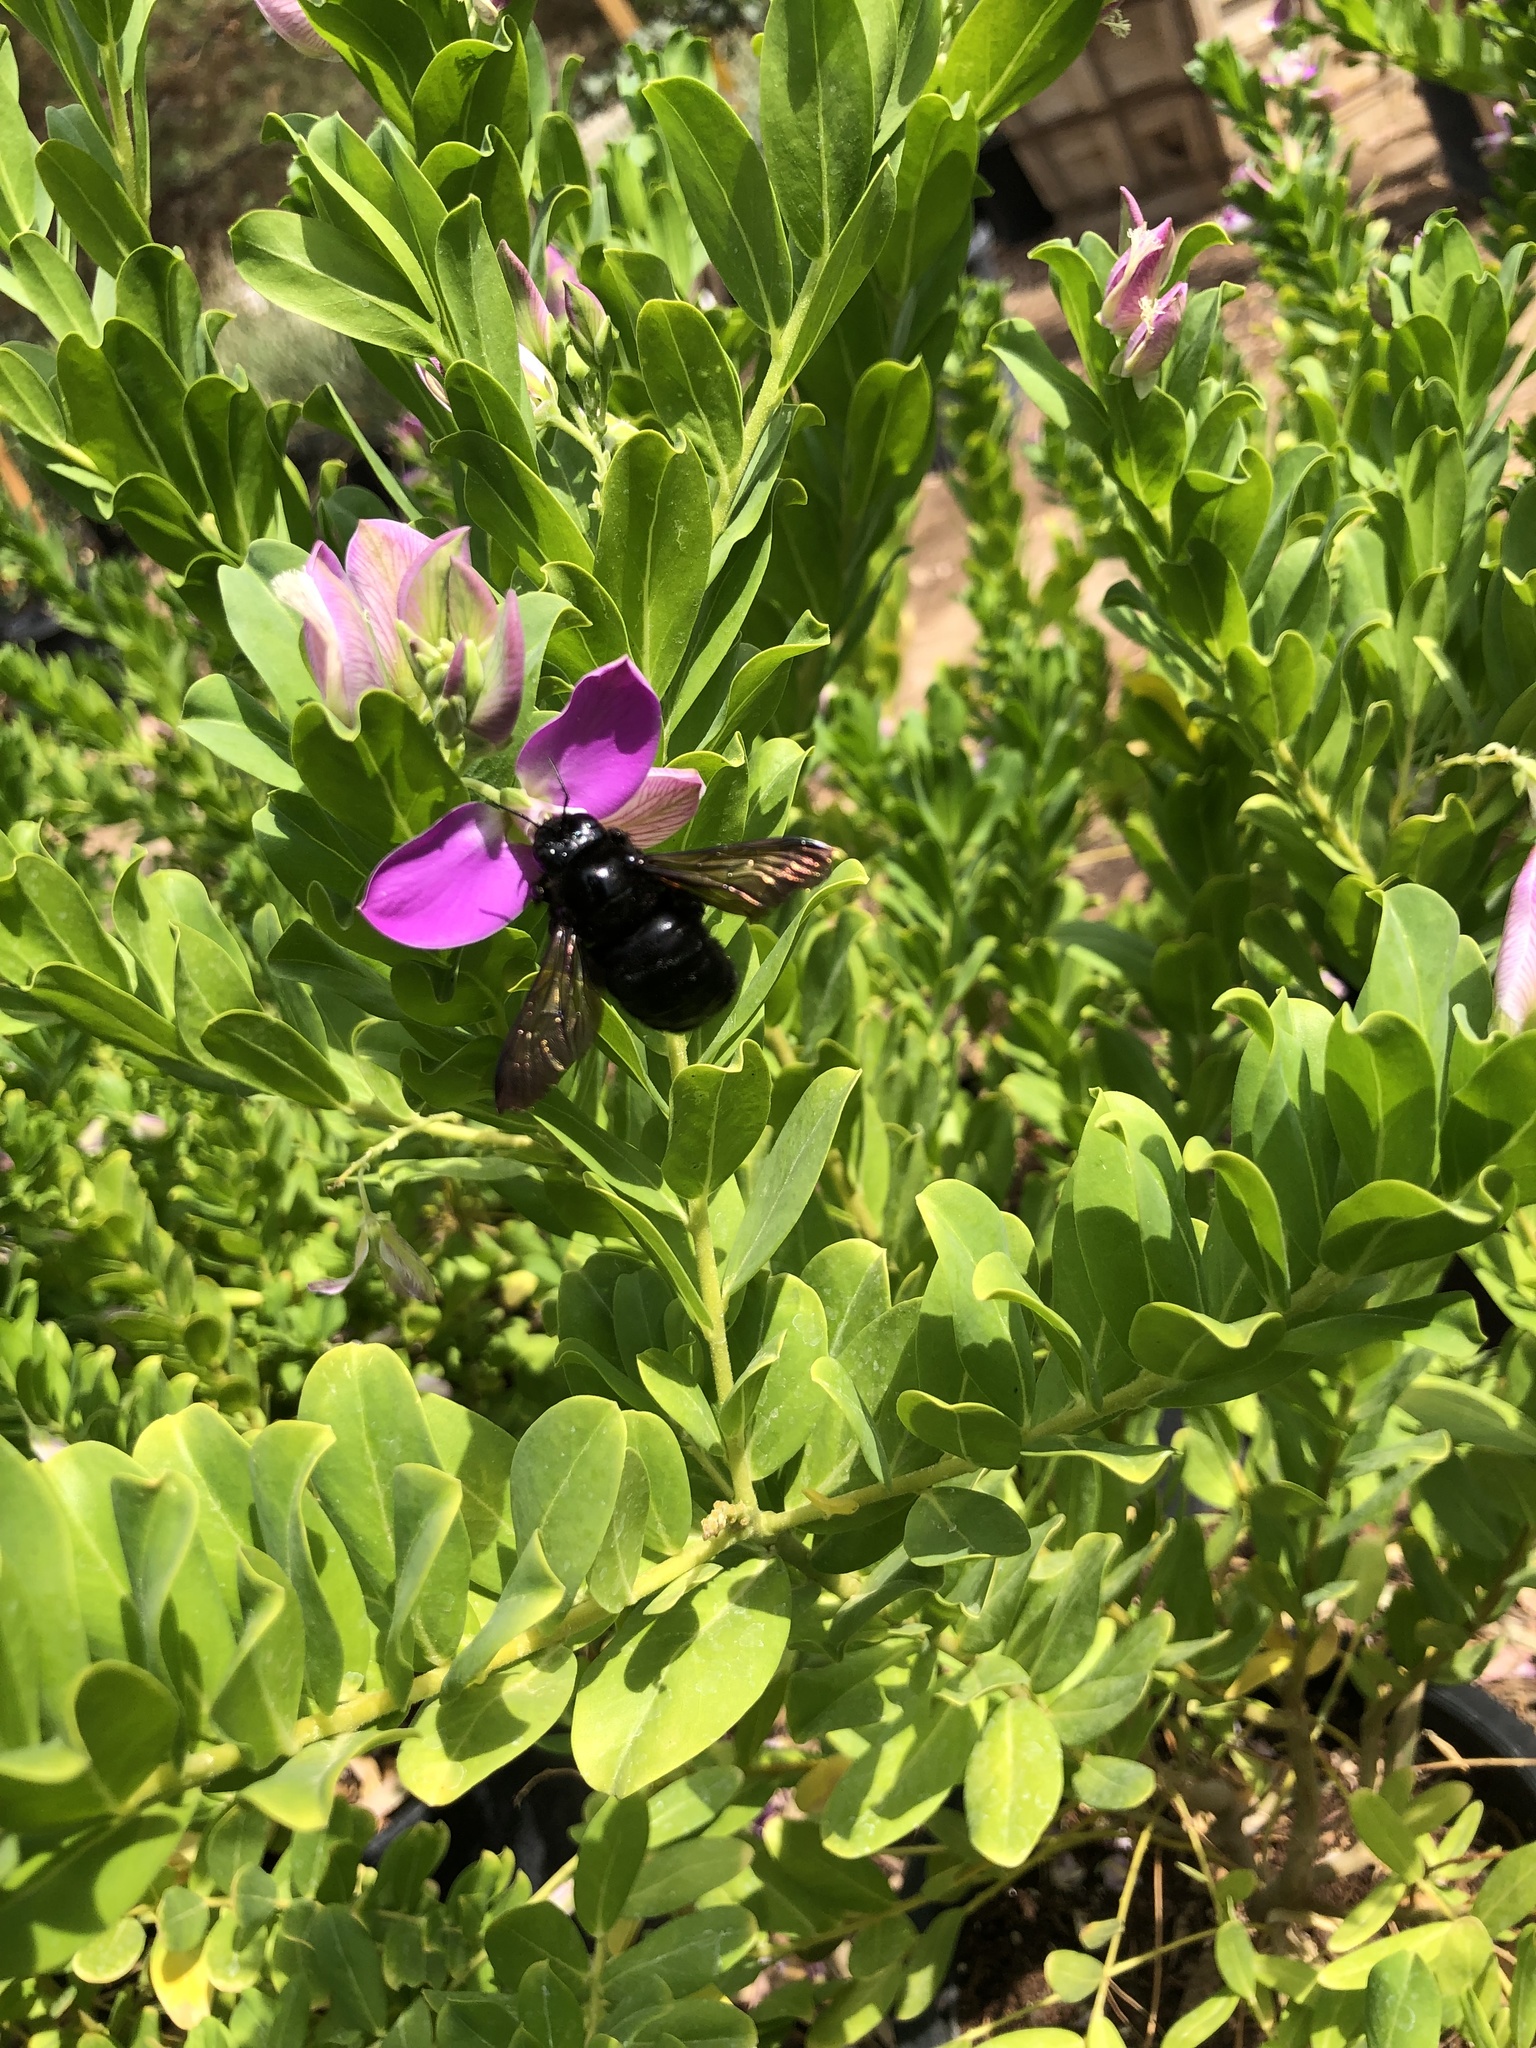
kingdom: Animalia
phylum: Arthropoda
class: Insecta
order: Hymenoptera
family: Apidae
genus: Xylocopa
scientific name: Xylocopa sonorina
